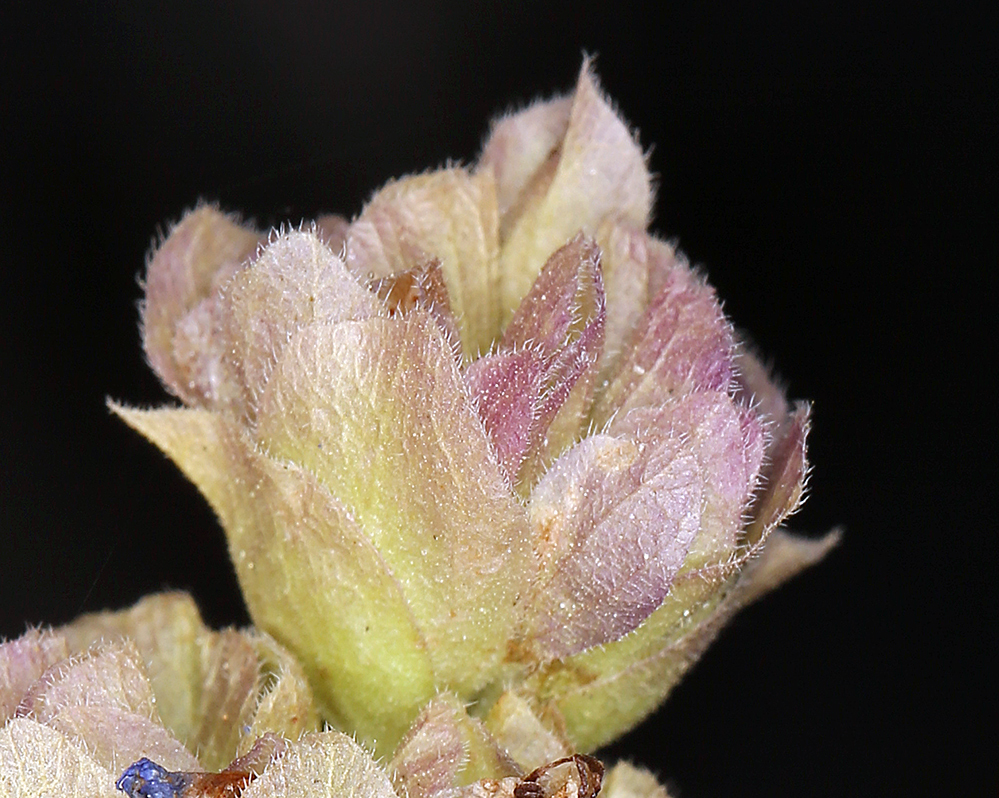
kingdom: Plantae
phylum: Tracheophyta
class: Magnoliopsida
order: Lamiales
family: Lamiaceae
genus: Salvia
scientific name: Salvia dorrii
